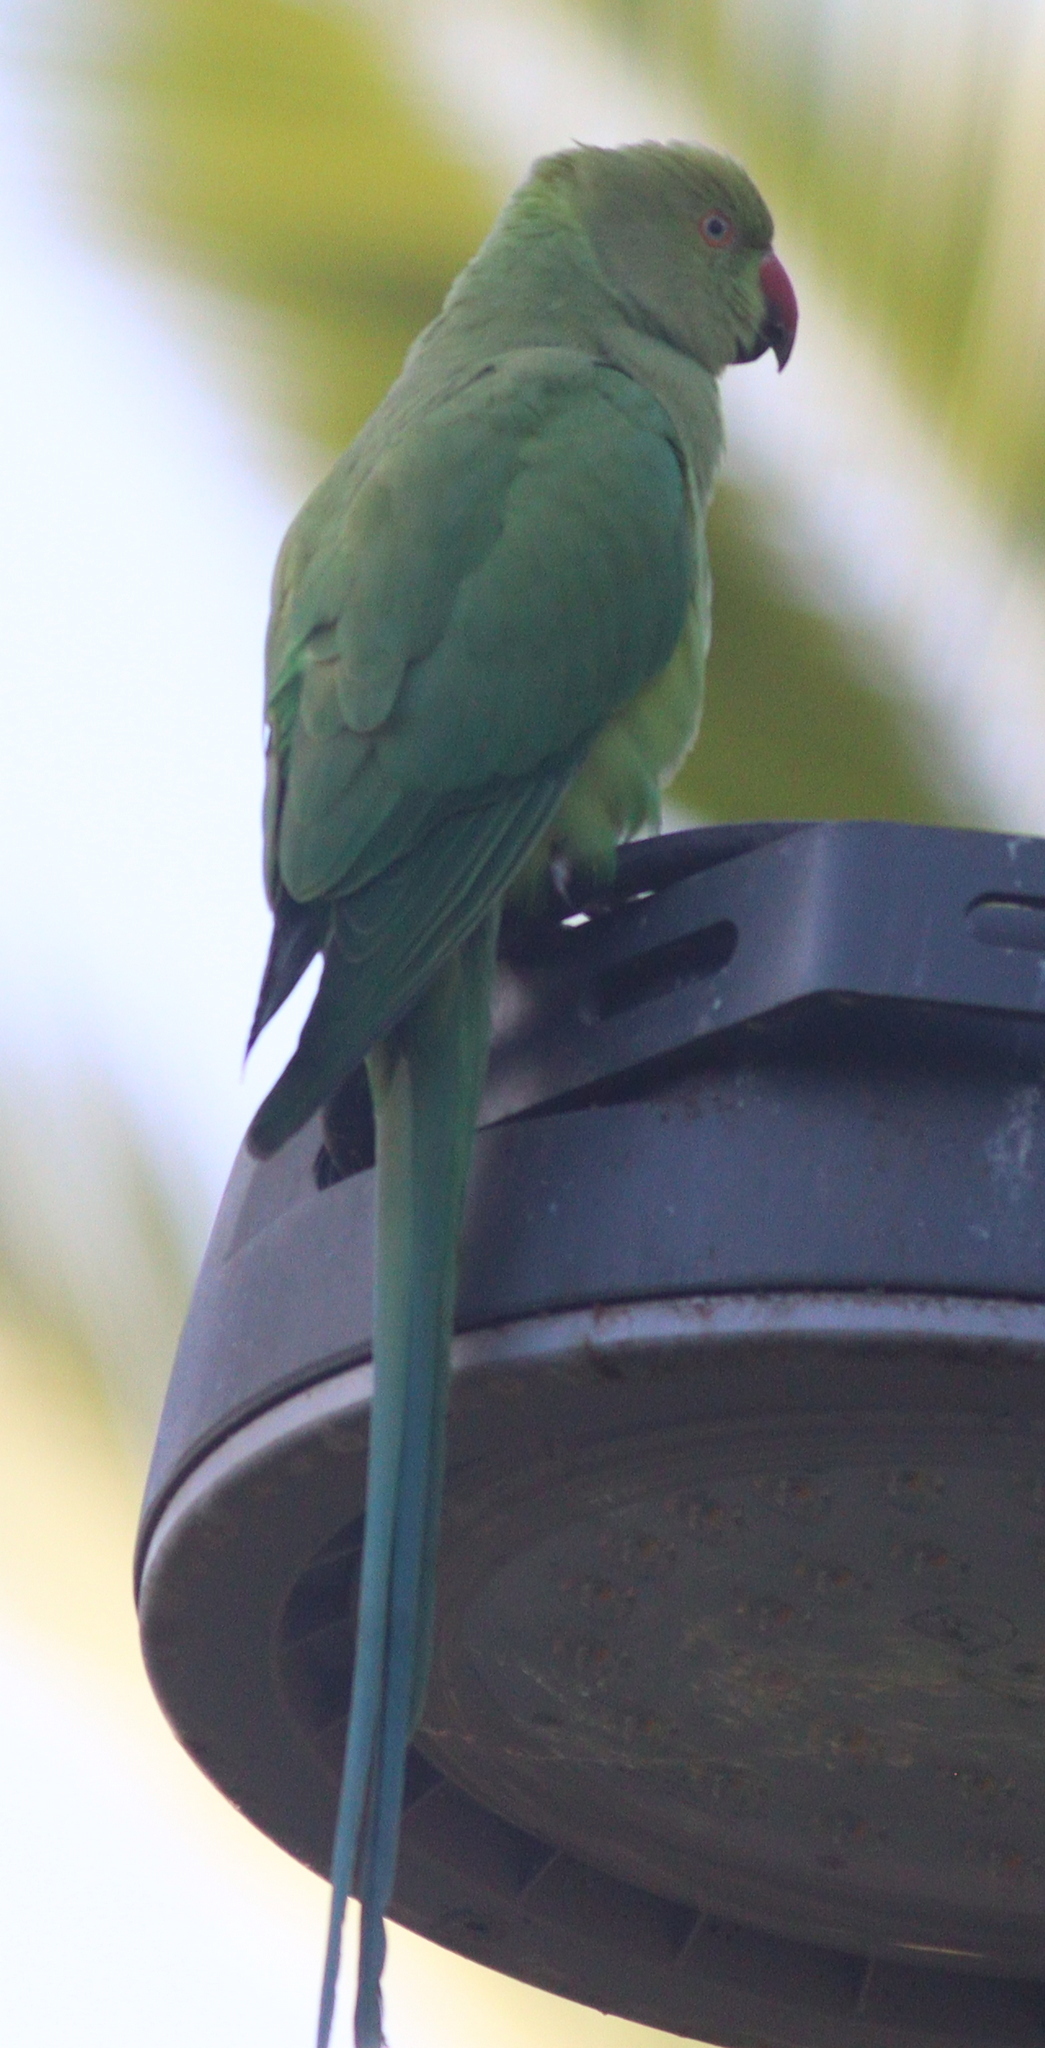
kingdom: Animalia
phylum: Chordata
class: Aves
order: Psittaciformes
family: Psittacidae
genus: Psittacula
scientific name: Psittacula krameri
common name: Rose-ringed parakeet
